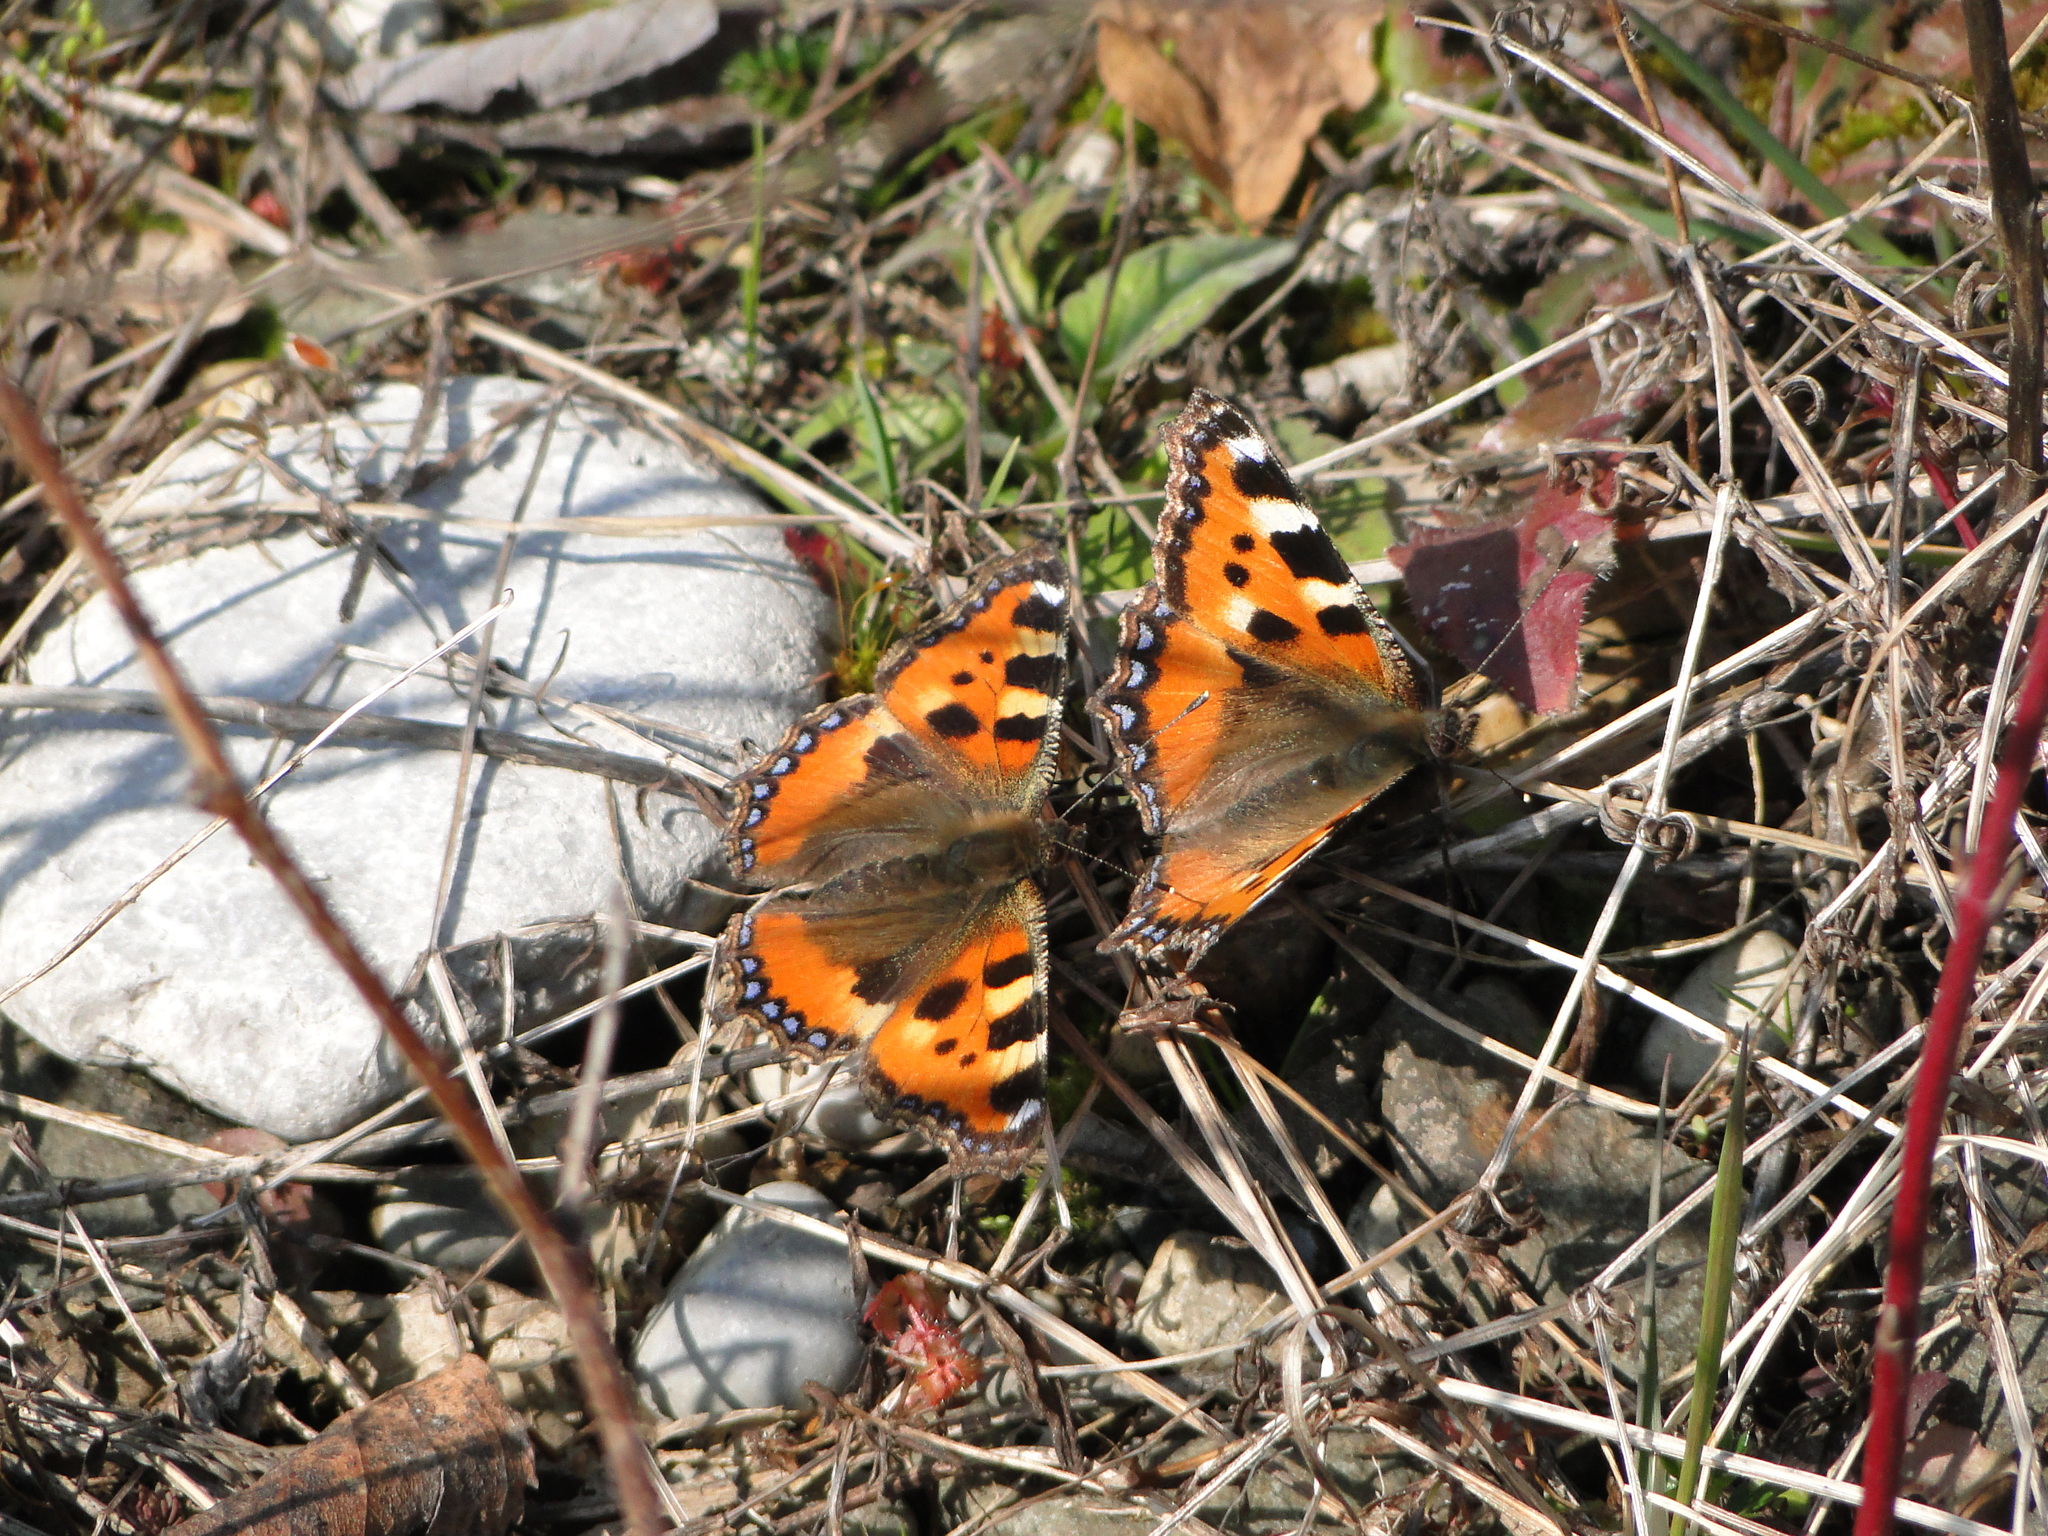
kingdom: Animalia
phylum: Arthropoda
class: Insecta
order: Lepidoptera
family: Nymphalidae
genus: Aglais
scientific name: Aglais urticae
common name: Small tortoiseshell
